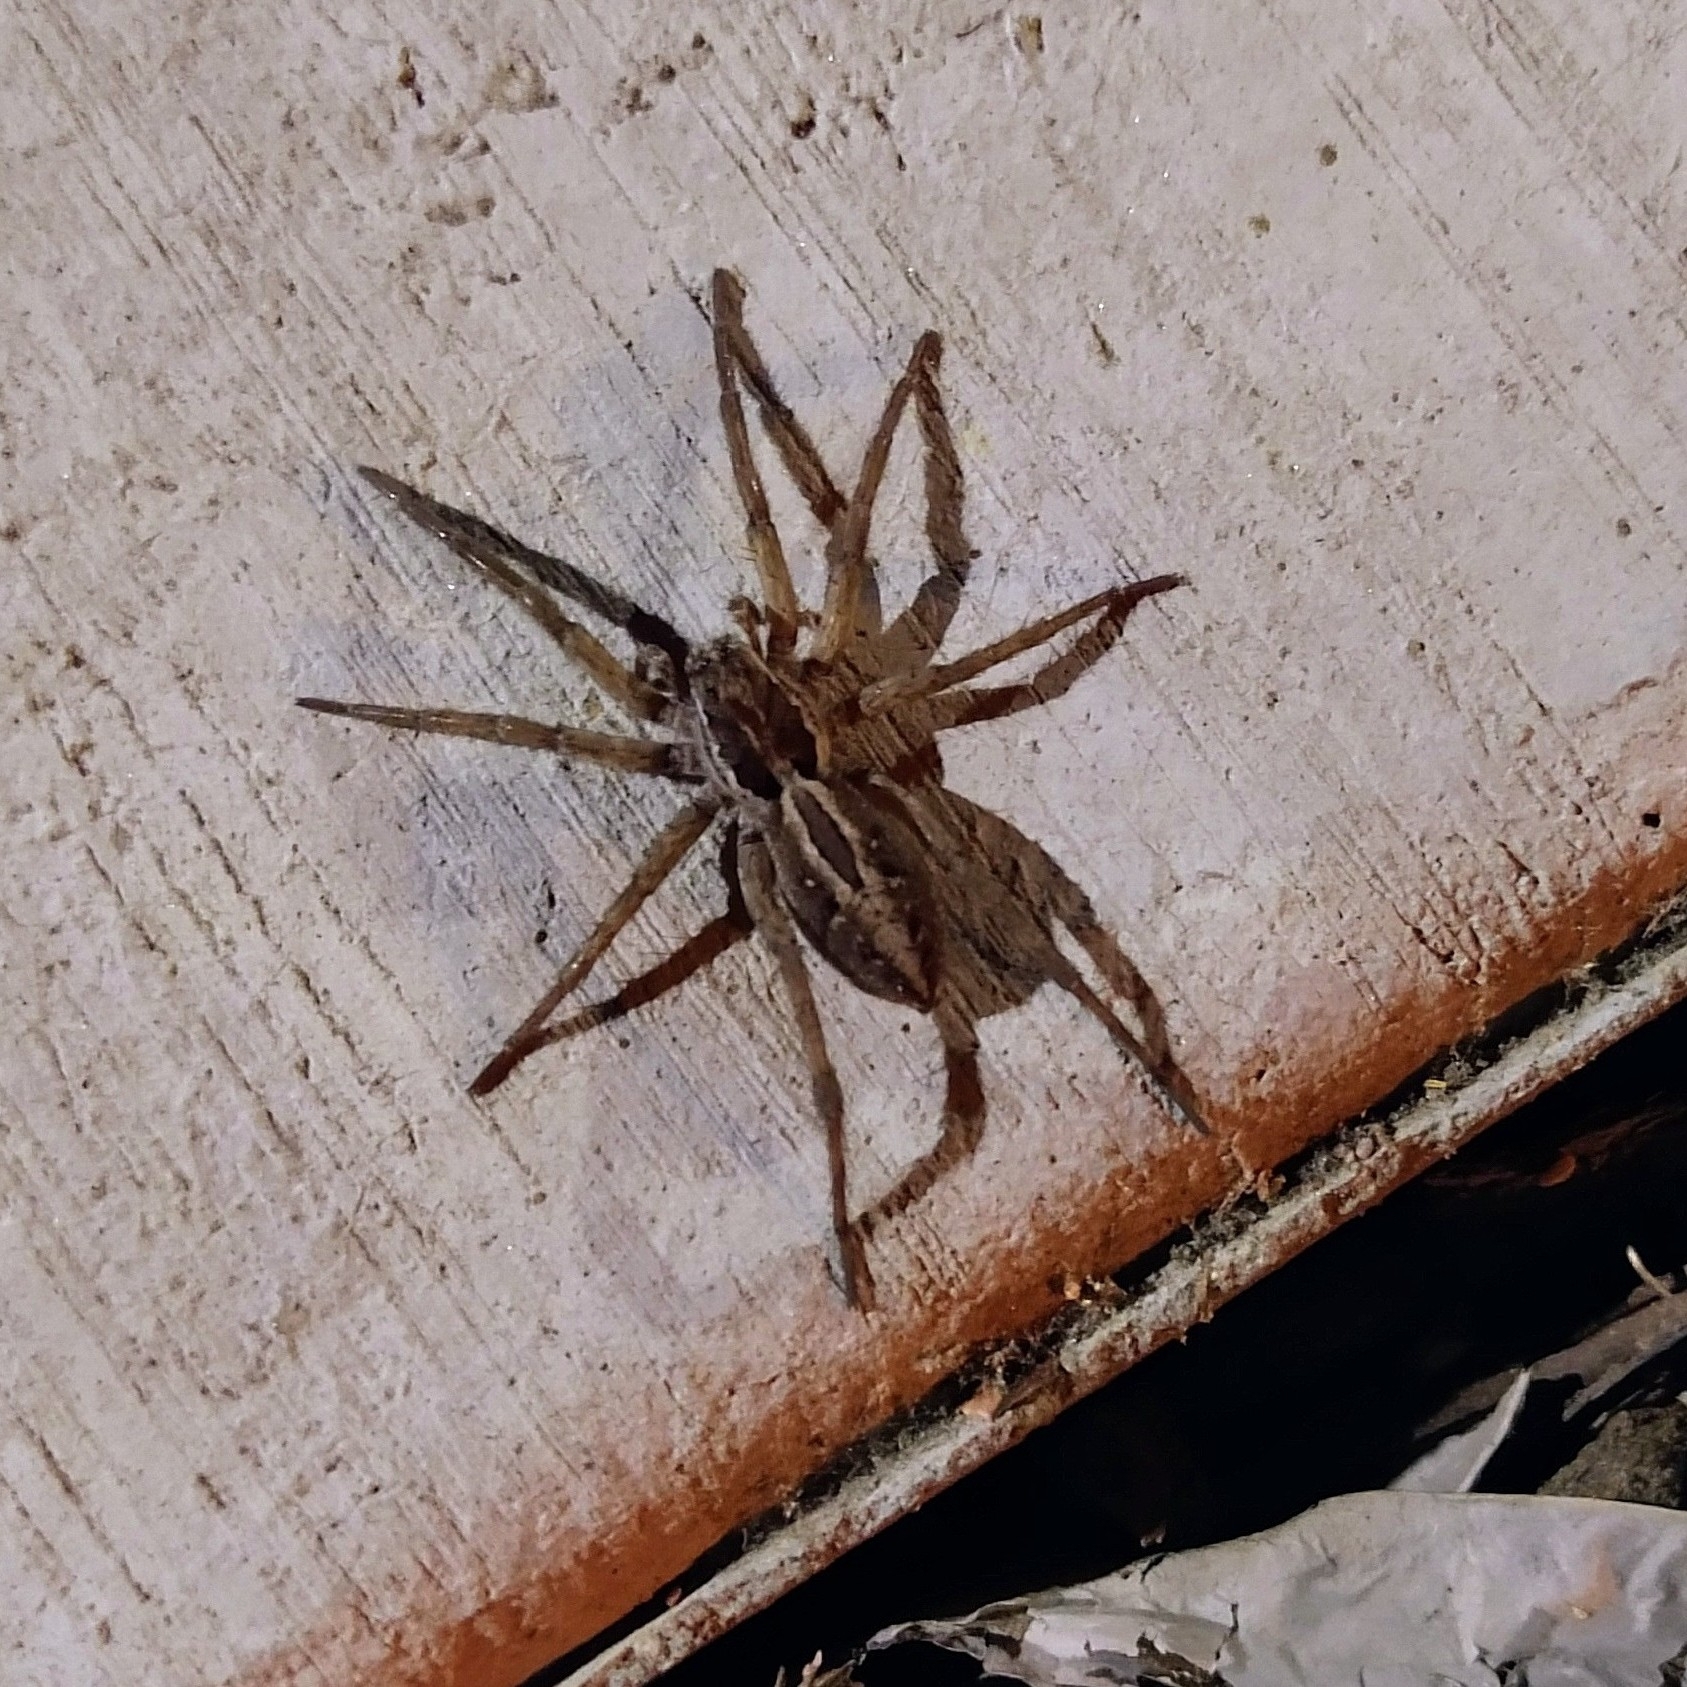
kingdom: Animalia
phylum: Arthropoda
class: Arachnida
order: Araneae
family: Lycosidae
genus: Schizocosa
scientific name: Schizocosa mccooki
